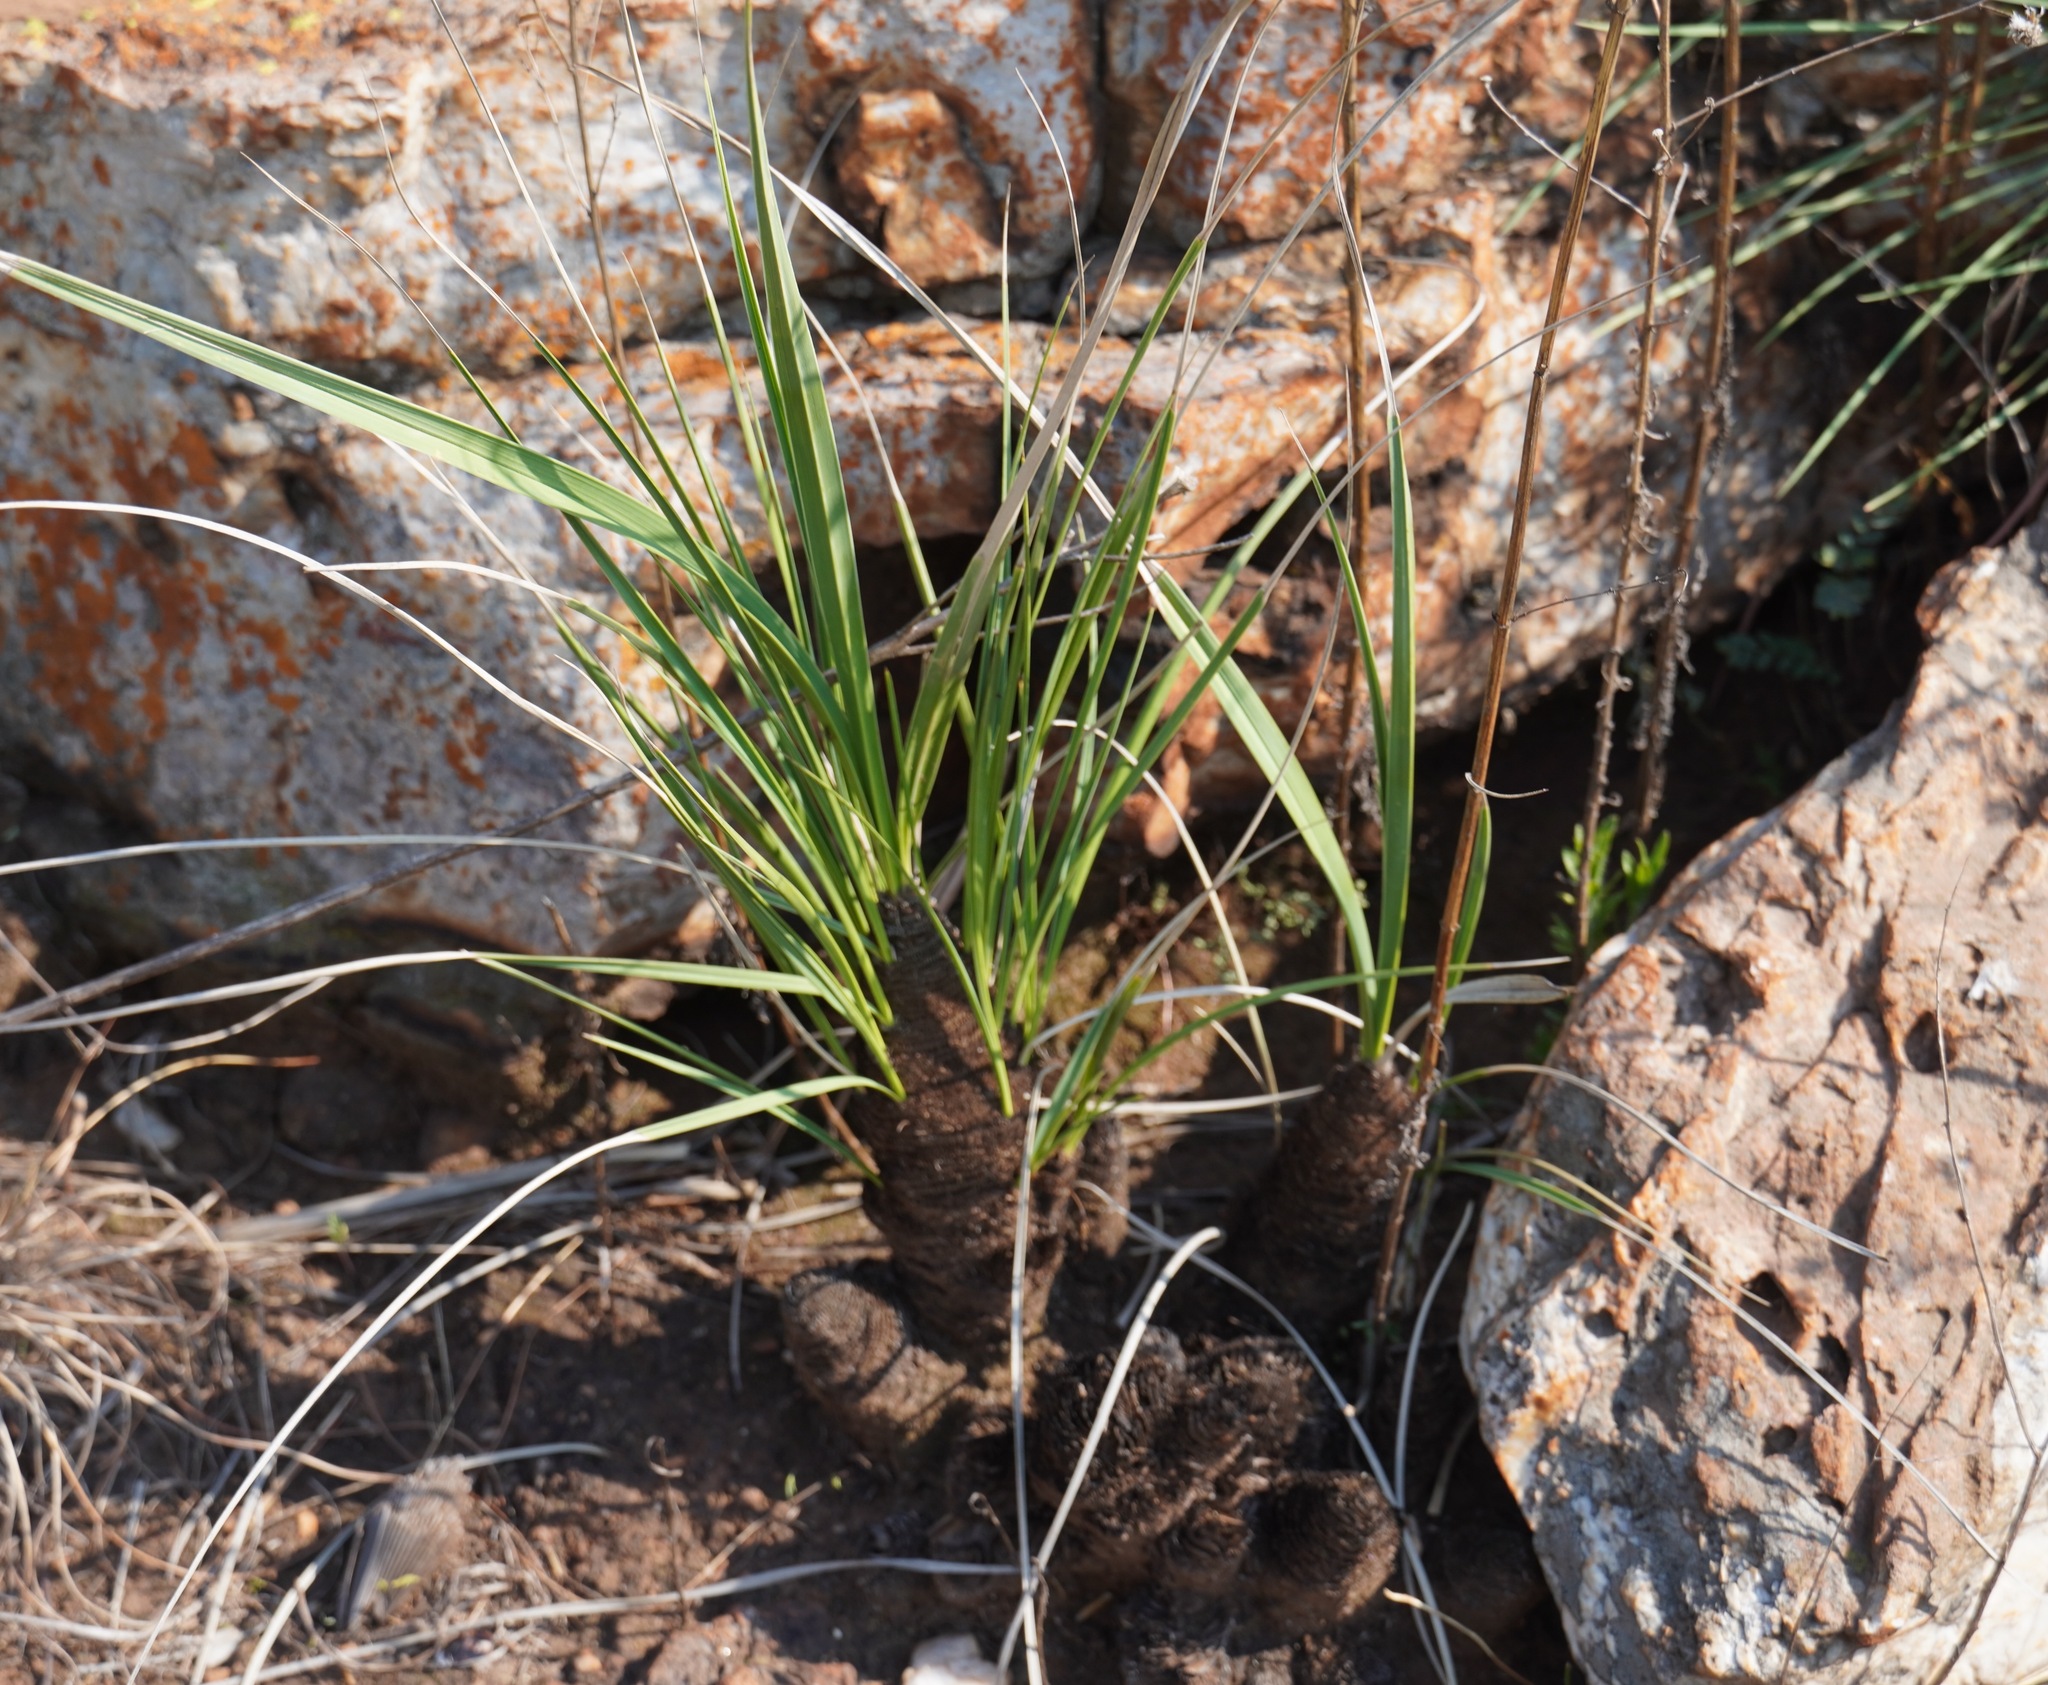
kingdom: Plantae
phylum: Tracheophyta
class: Liliopsida
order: Pandanales
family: Velloziaceae
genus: Xerophyta
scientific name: Xerophyta retinervis
